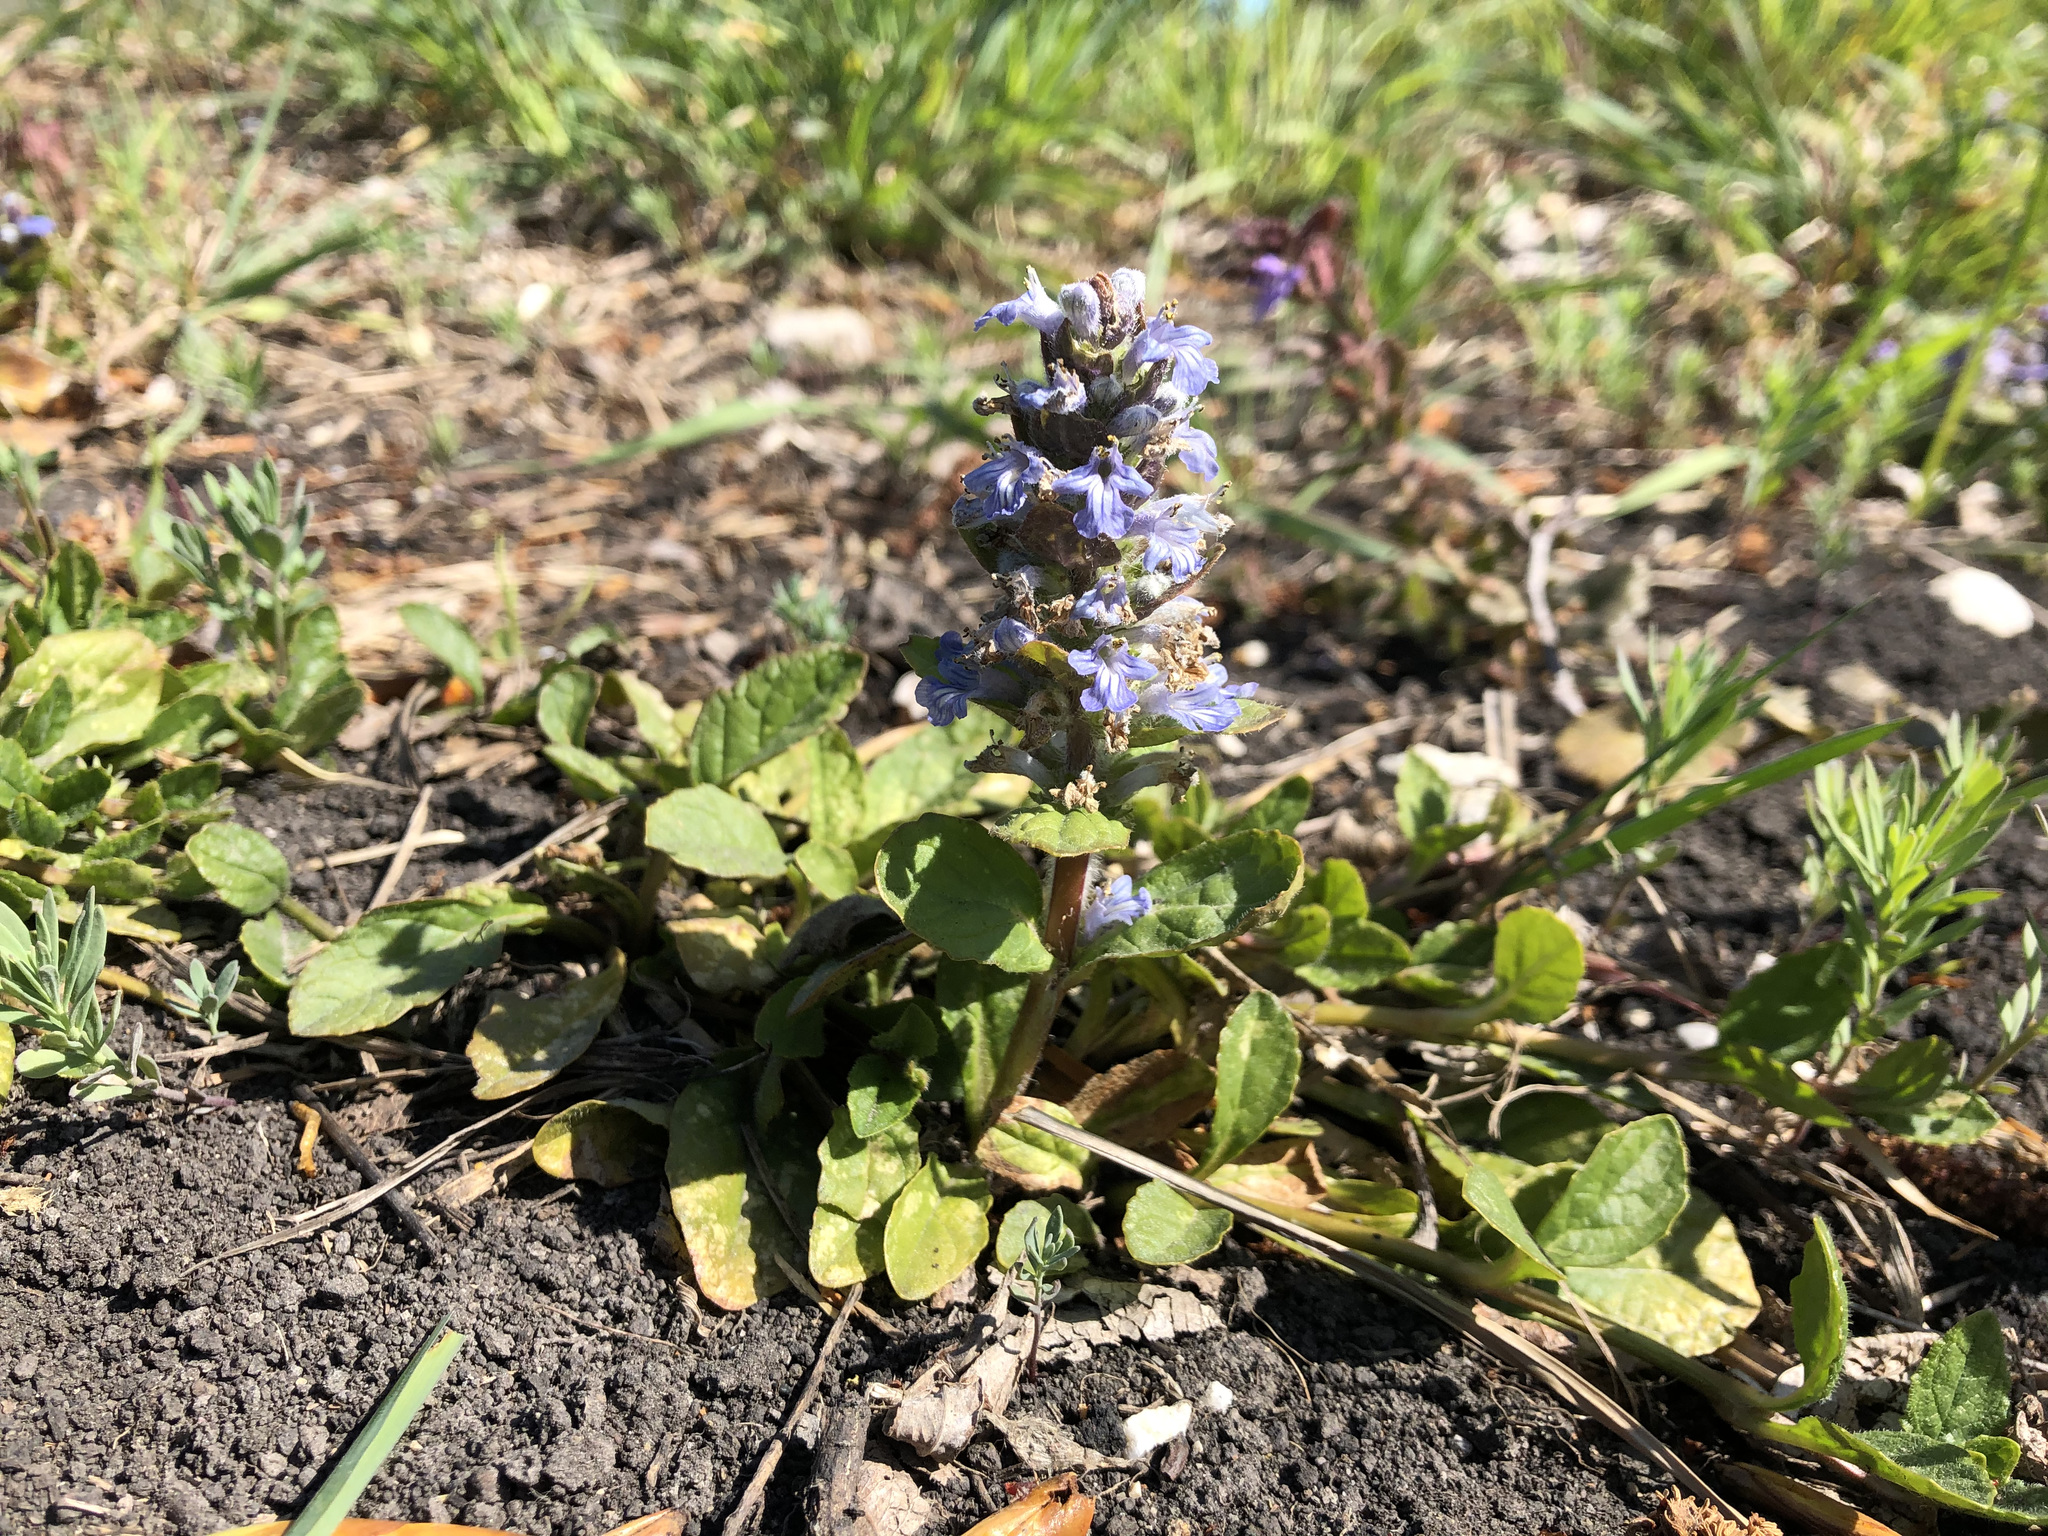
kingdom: Plantae
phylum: Tracheophyta
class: Magnoliopsida
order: Lamiales
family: Lamiaceae
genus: Ajuga
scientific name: Ajuga reptans
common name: Bugle
